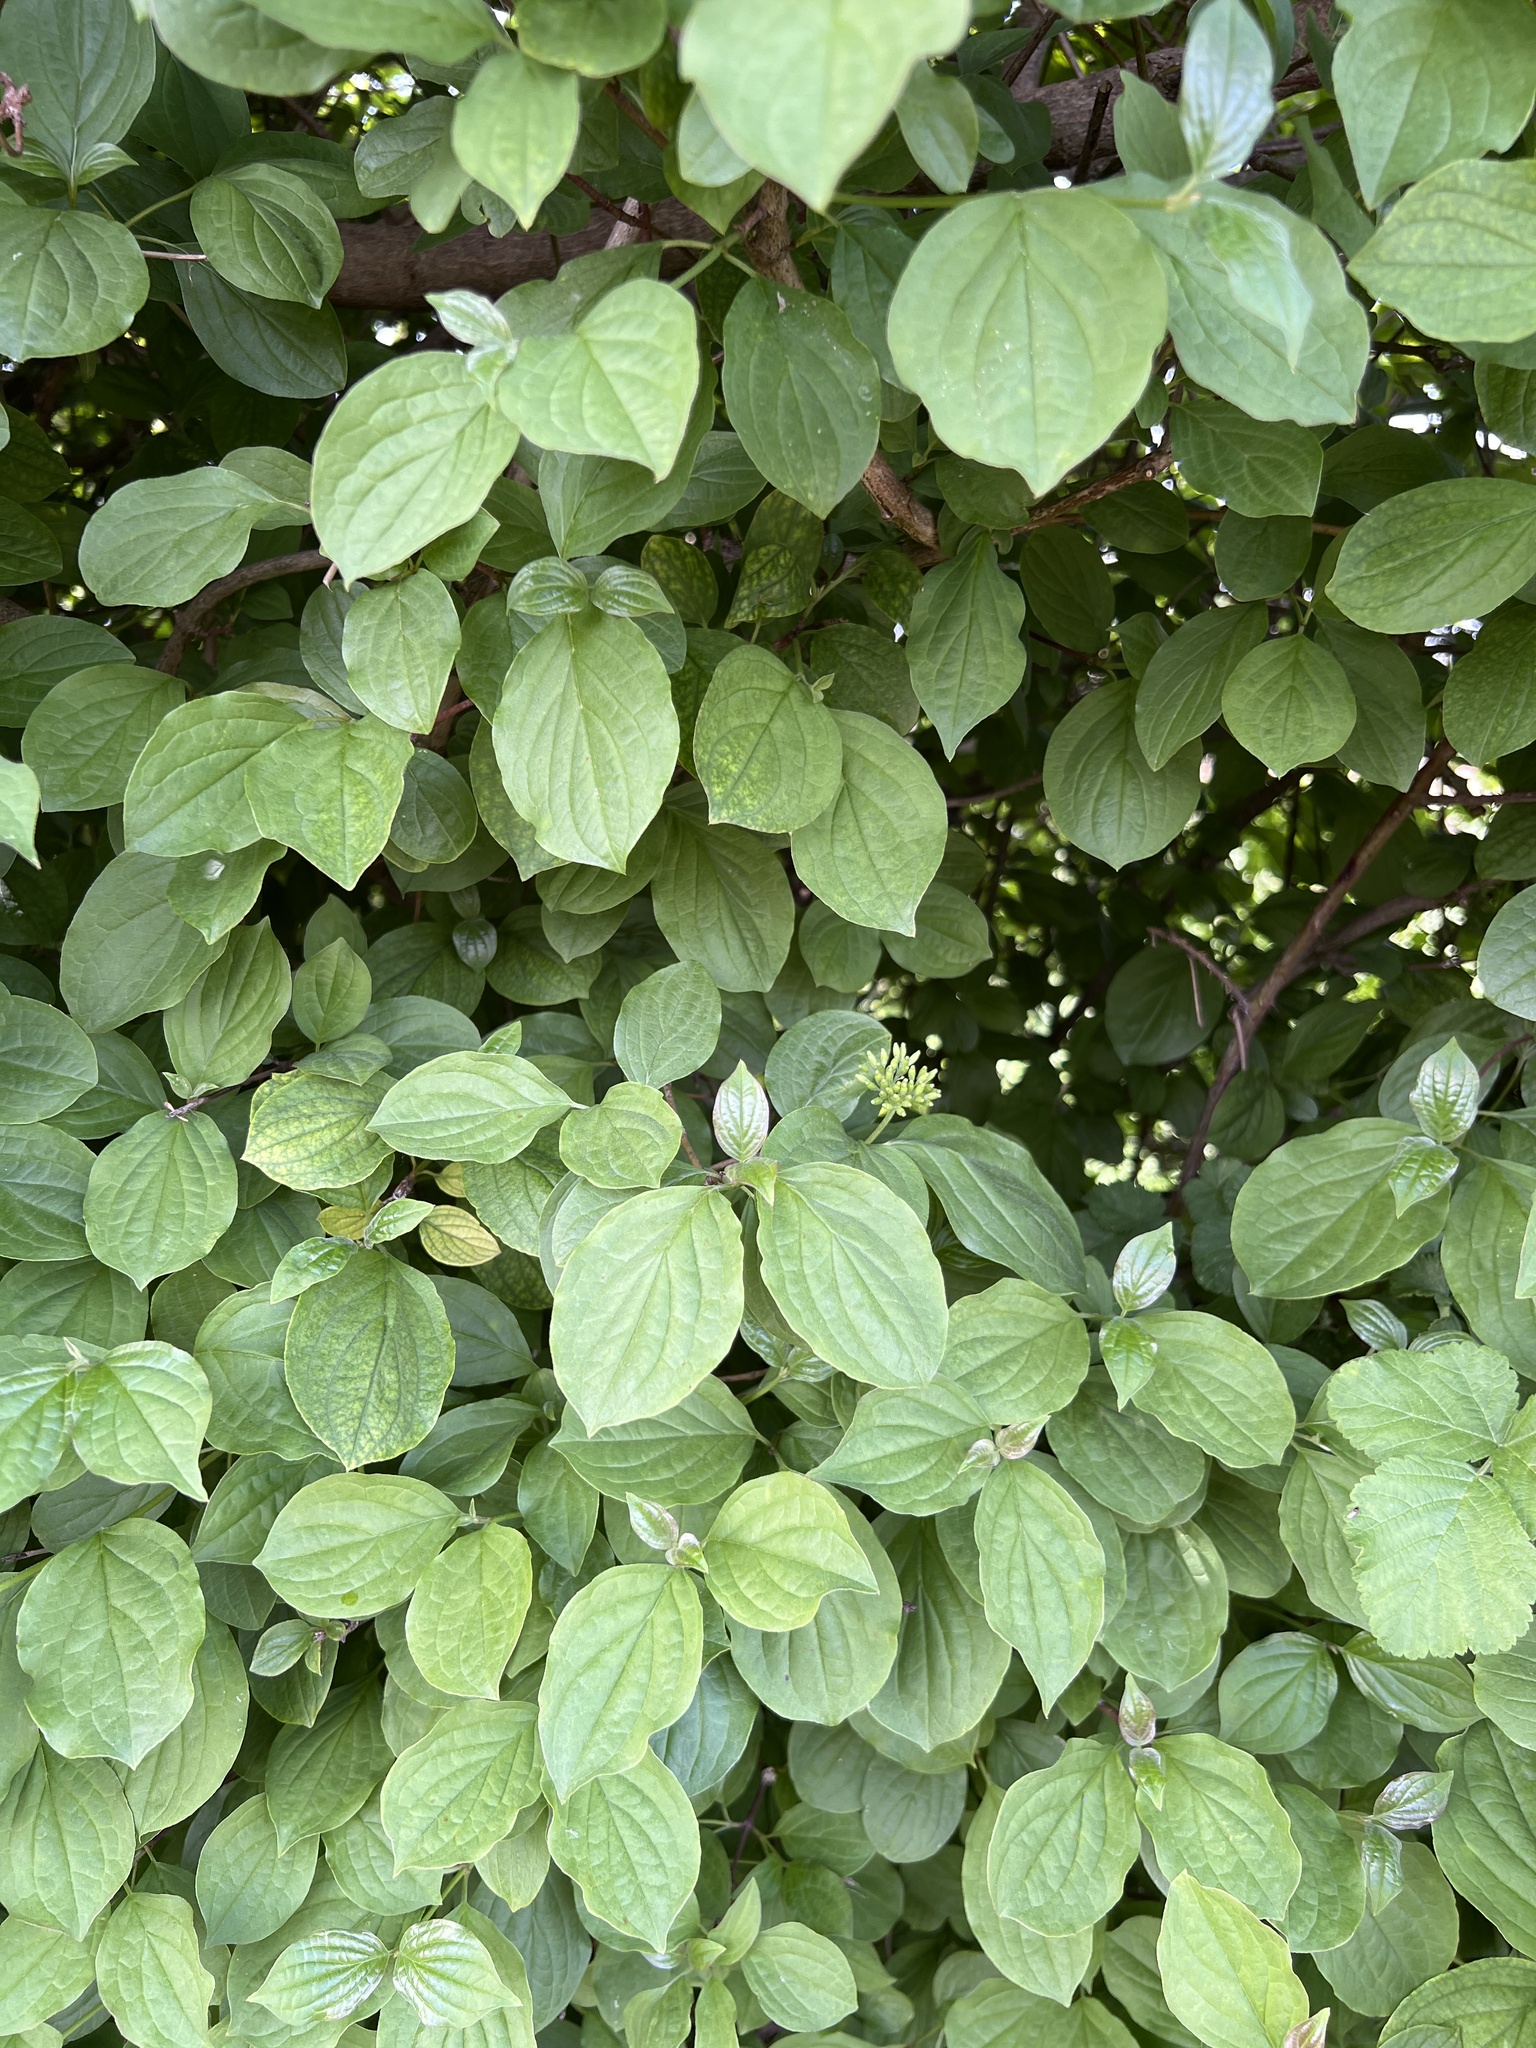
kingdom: Plantae
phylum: Tracheophyta
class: Magnoliopsida
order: Cornales
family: Cornaceae
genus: Cornus
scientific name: Cornus sanguinea
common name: Dogwood
